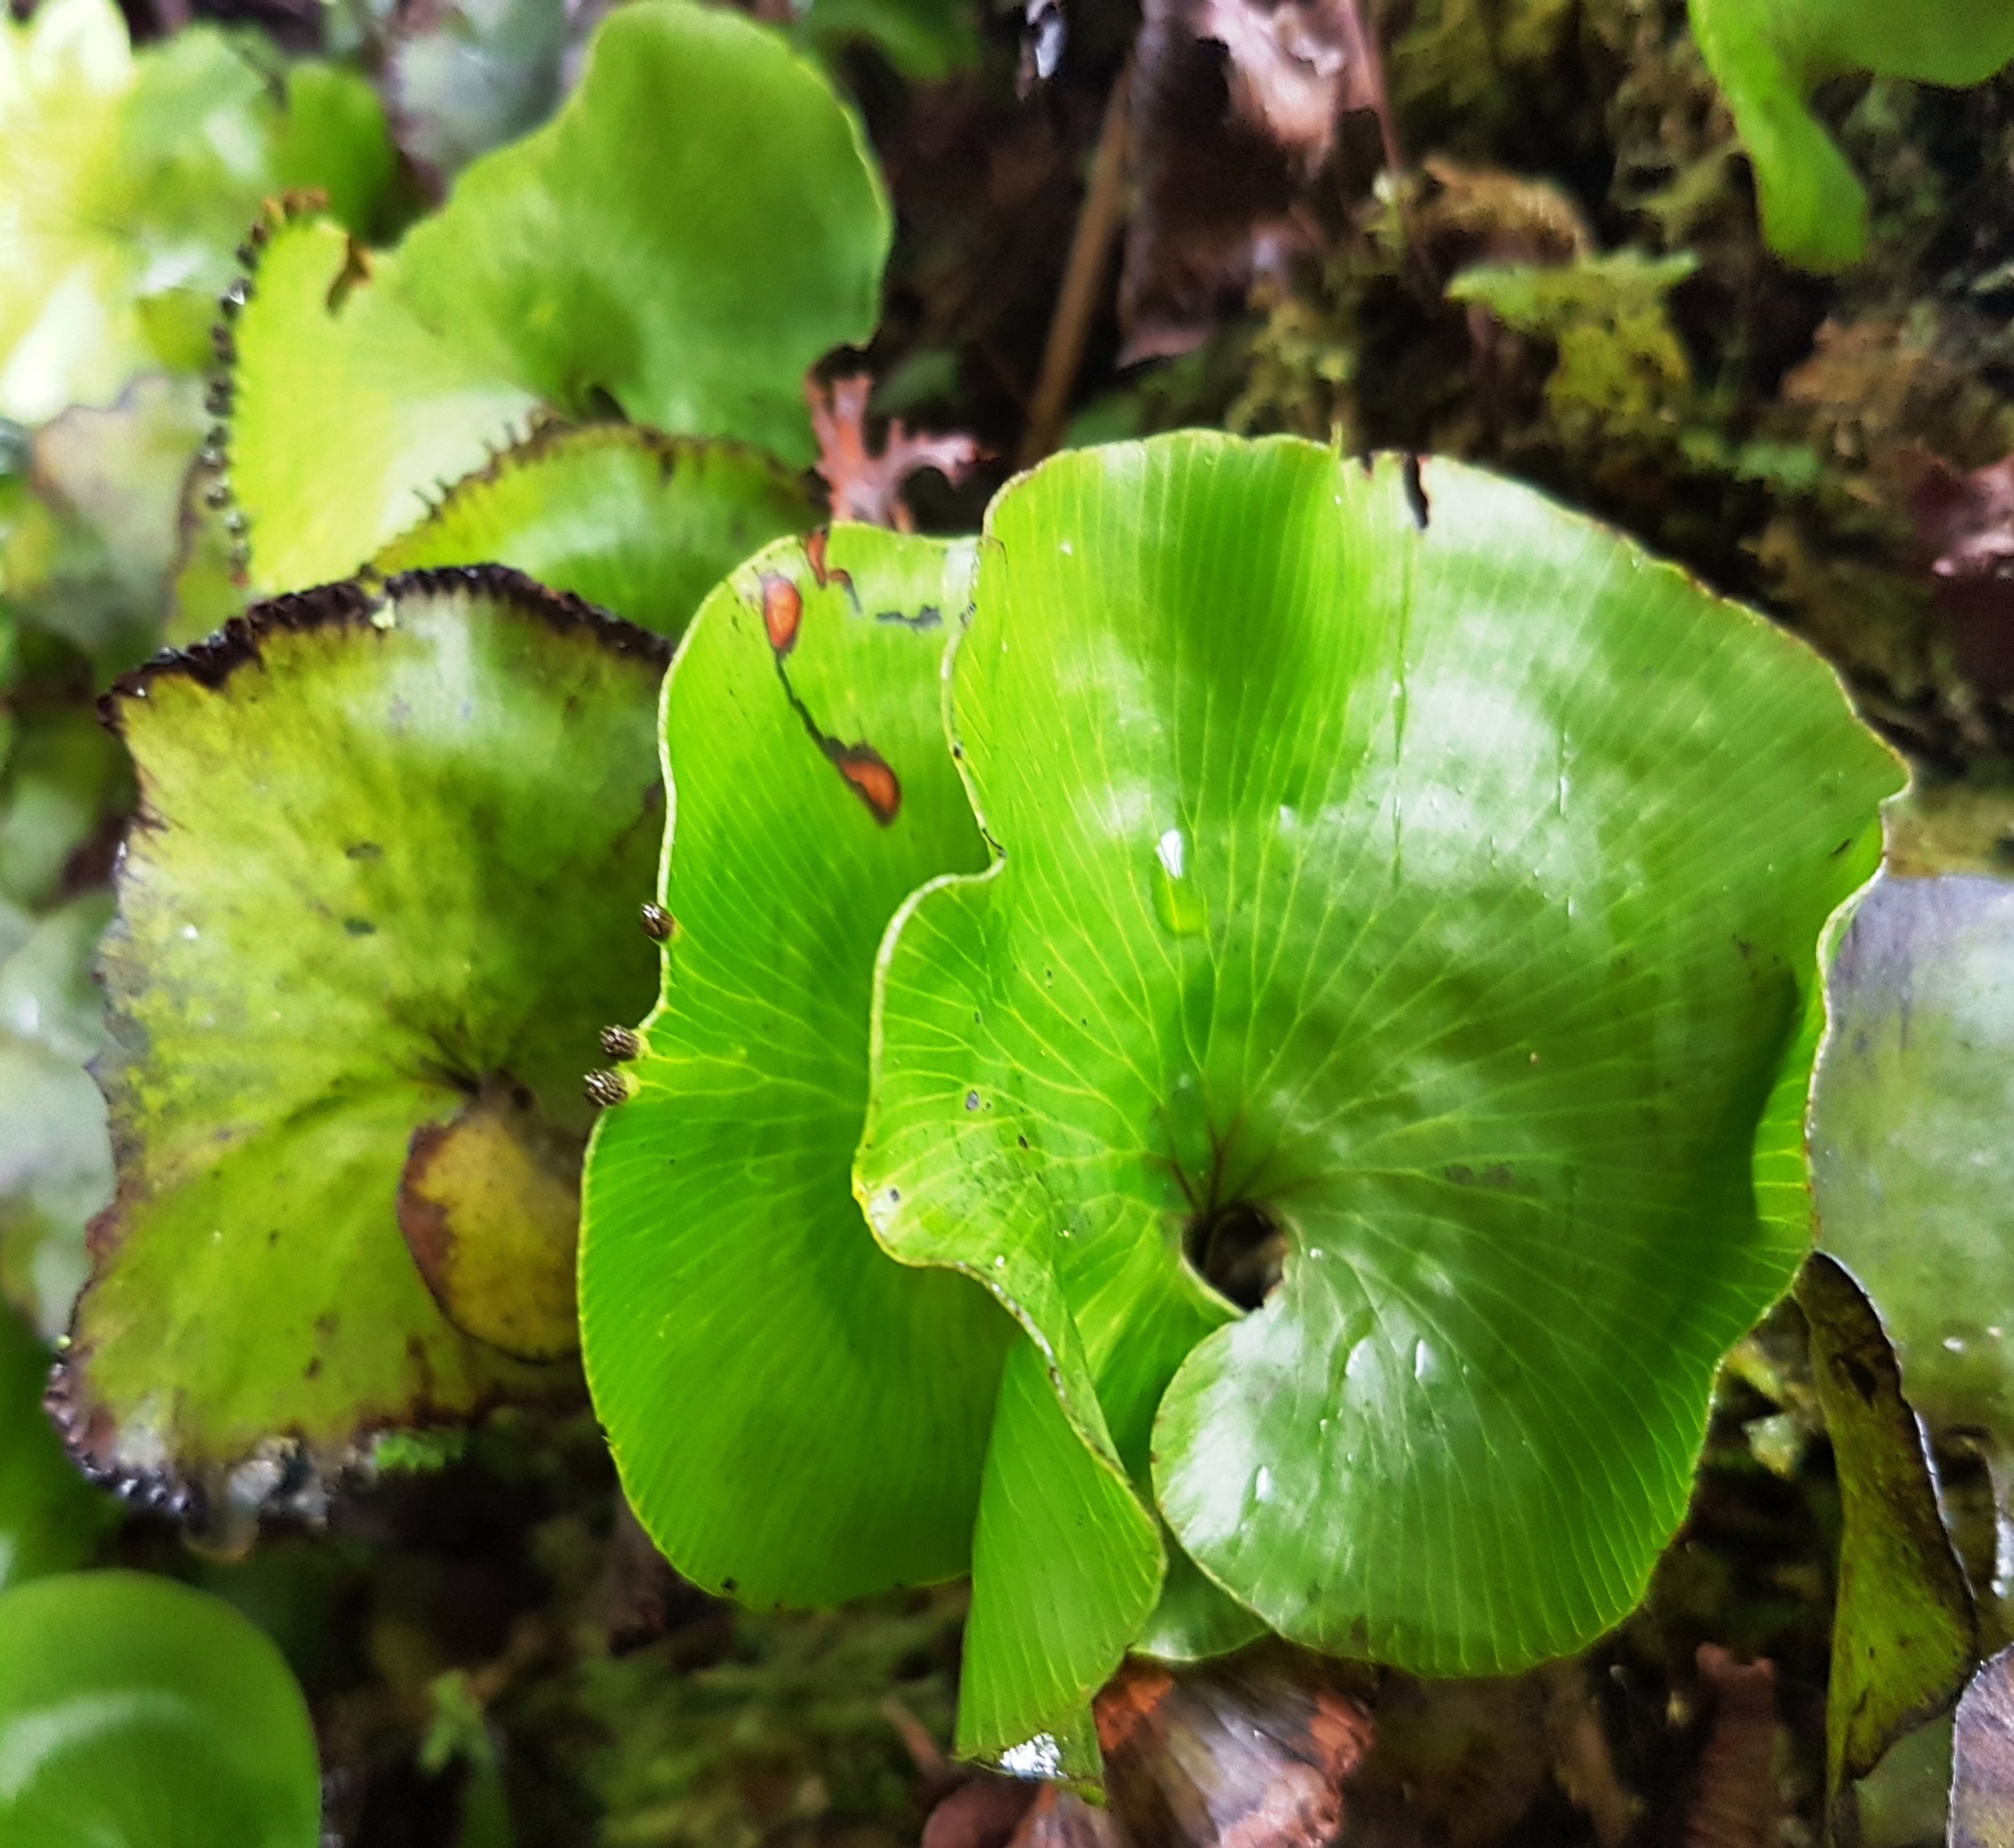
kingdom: Plantae
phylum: Tracheophyta
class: Polypodiopsida
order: Hymenophyllales
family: Hymenophyllaceae
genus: Hymenophyllum
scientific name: Hymenophyllum nephrophyllum
